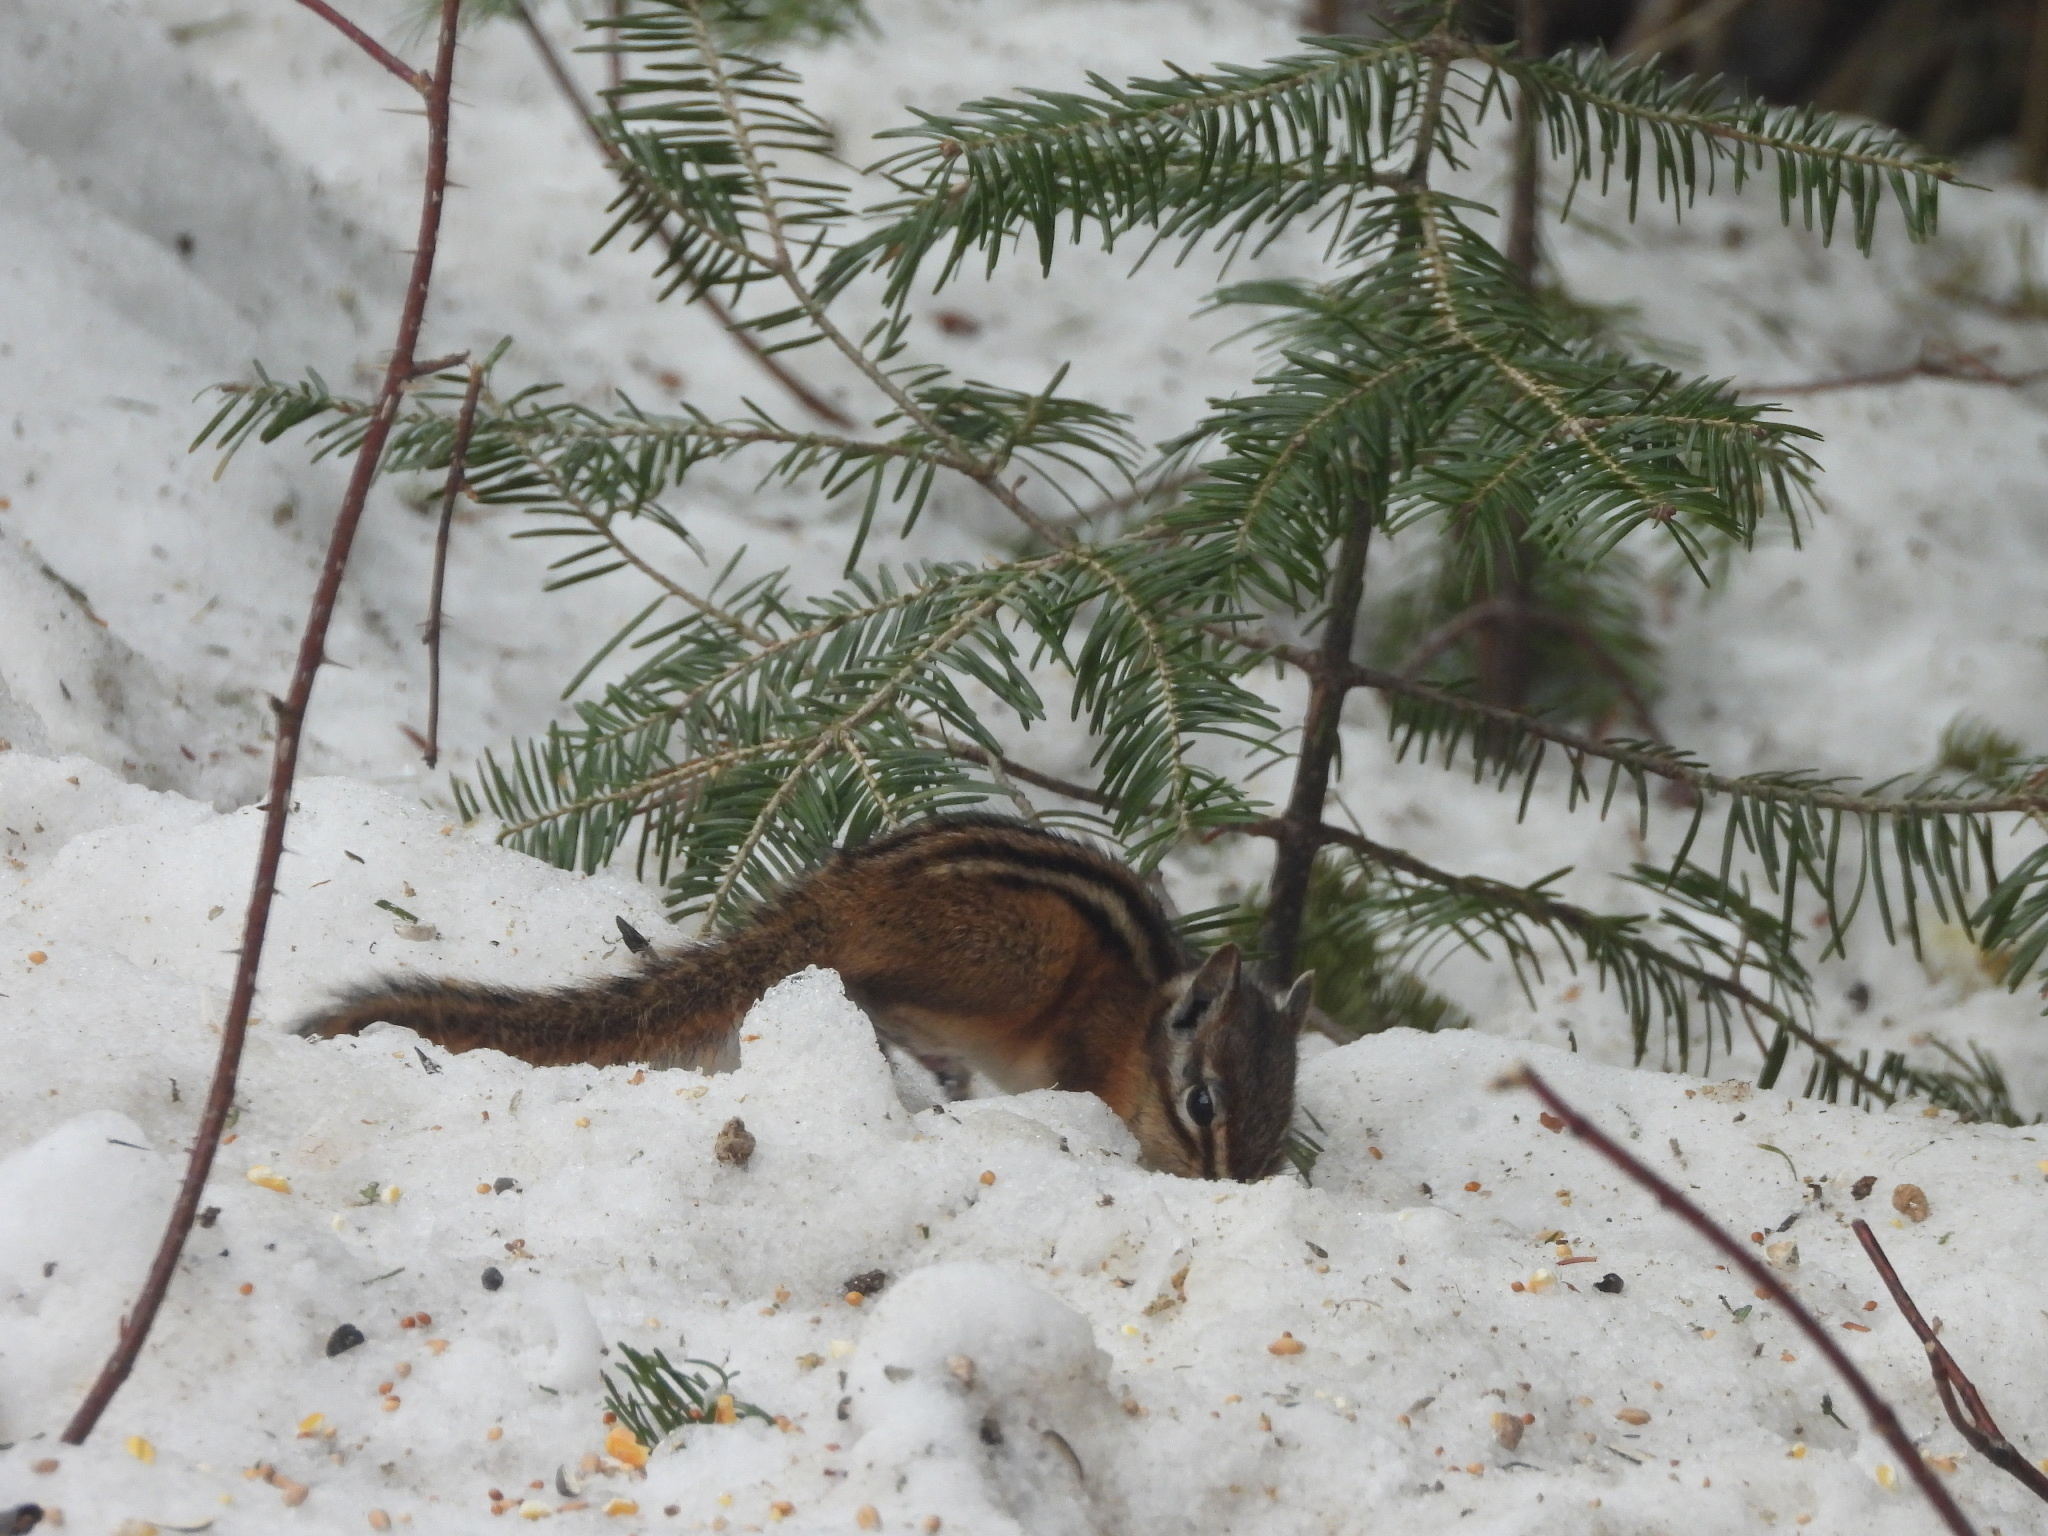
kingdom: Animalia
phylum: Chordata
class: Mammalia
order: Rodentia
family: Sciuridae
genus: Tamias
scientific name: Tamias minimus
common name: Least chipmunk
